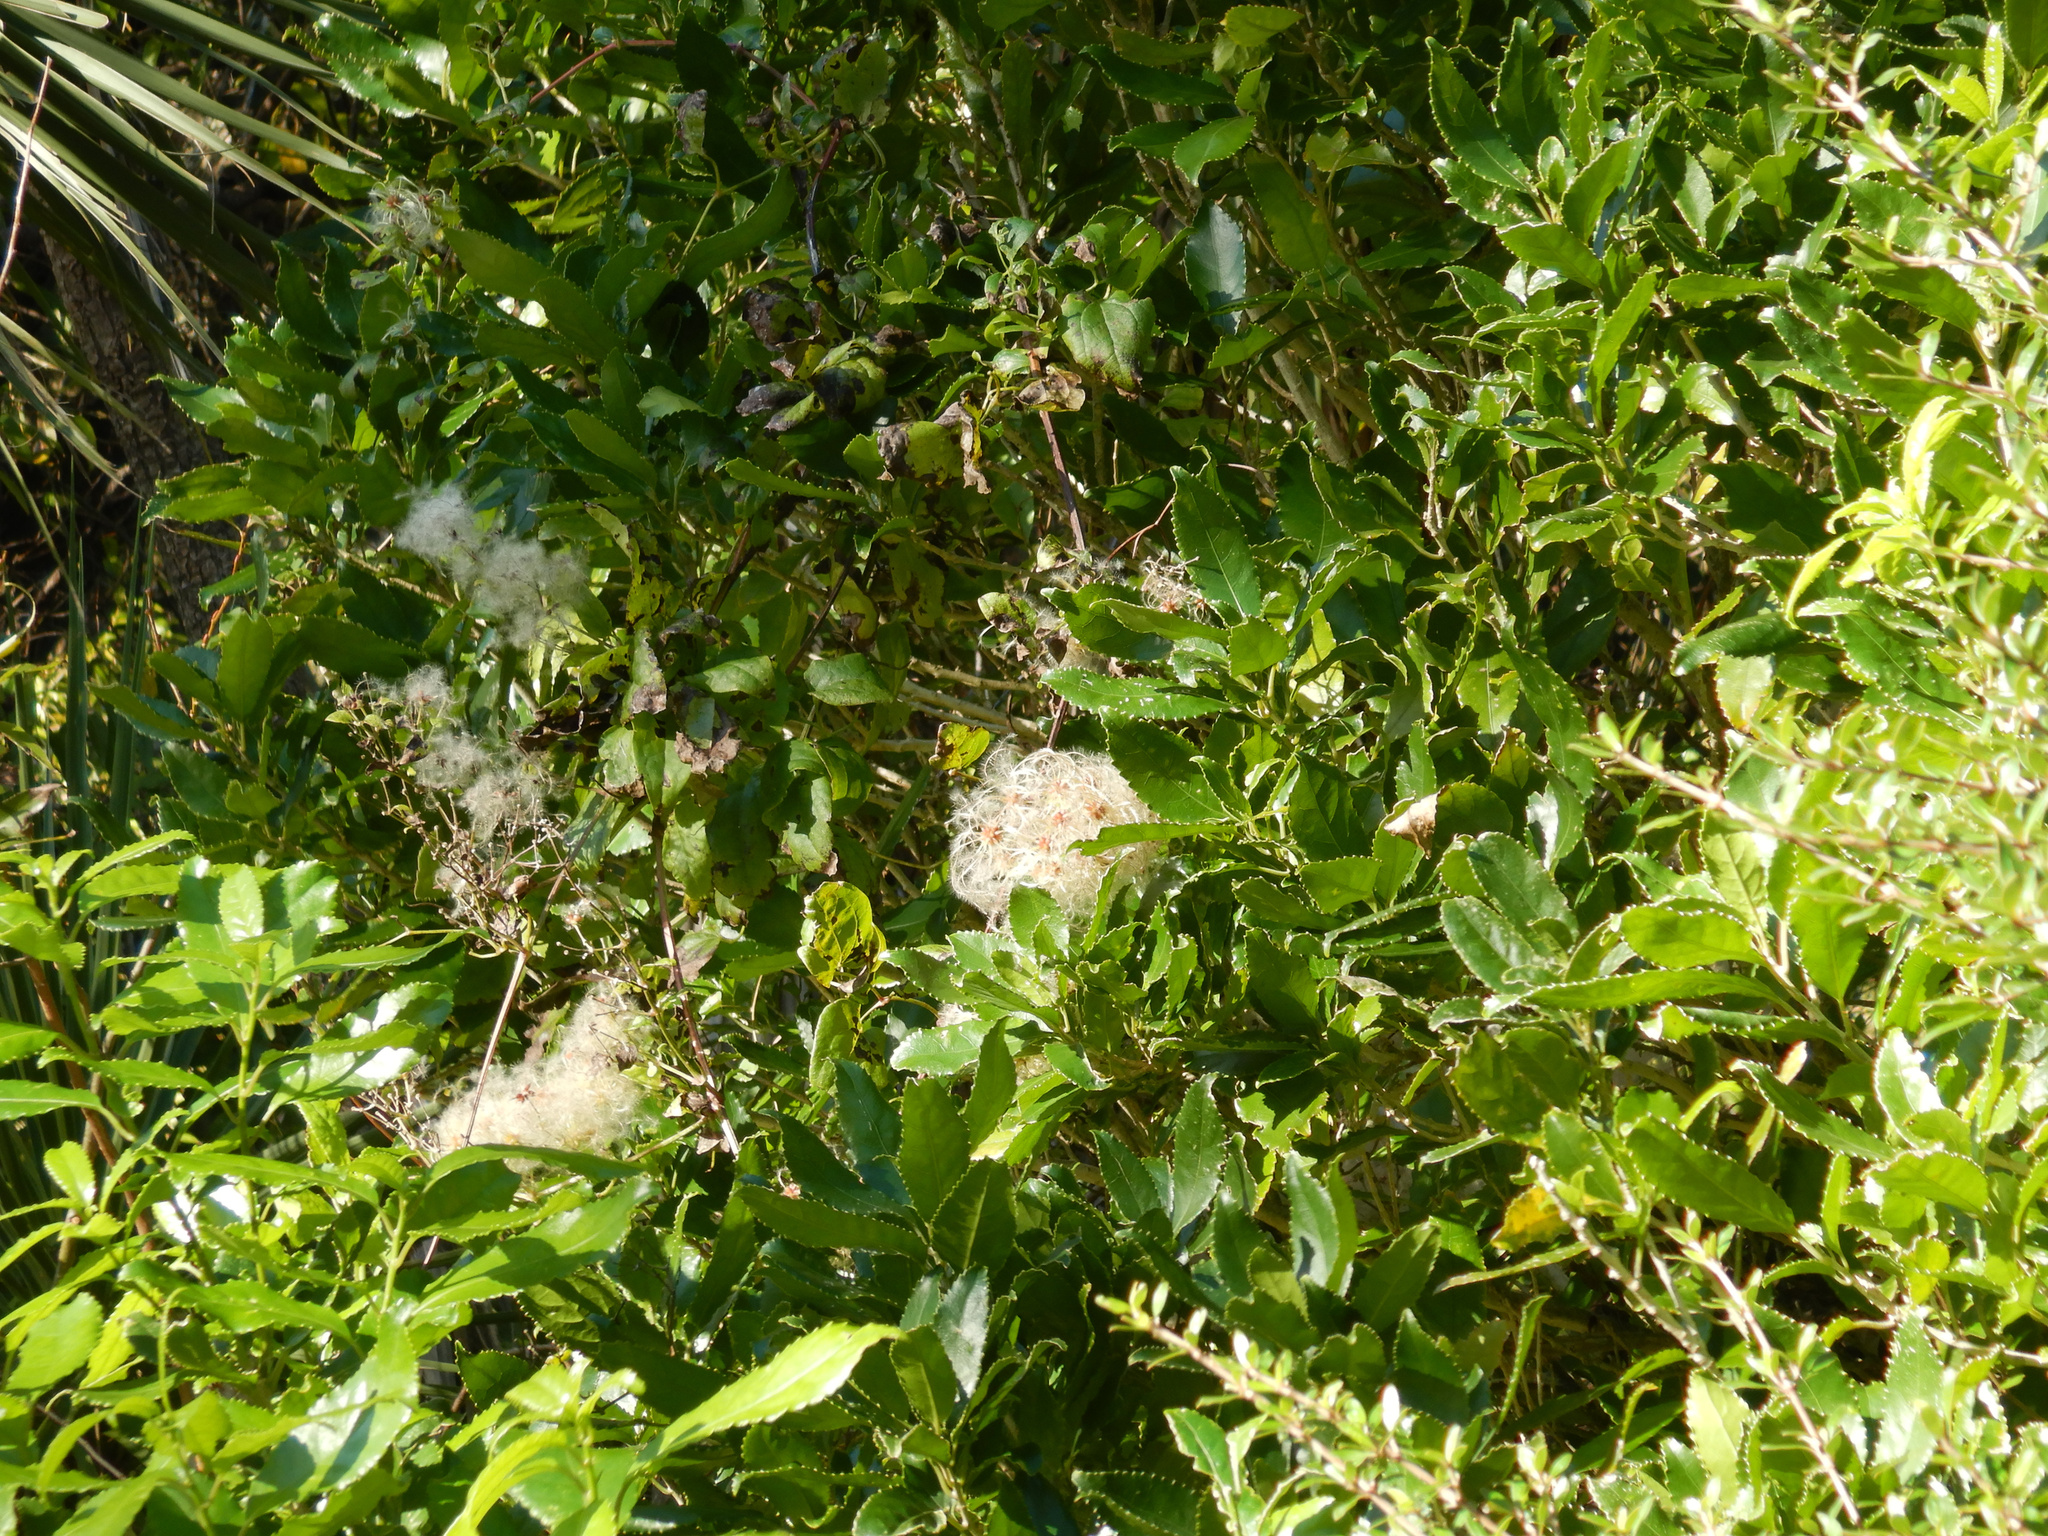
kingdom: Plantae
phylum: Tracheophyta
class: Magnoliopsida
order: Malpighiales
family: Violaceae
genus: Melicytus
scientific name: Melicytus ramiflorus
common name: Mahoe
